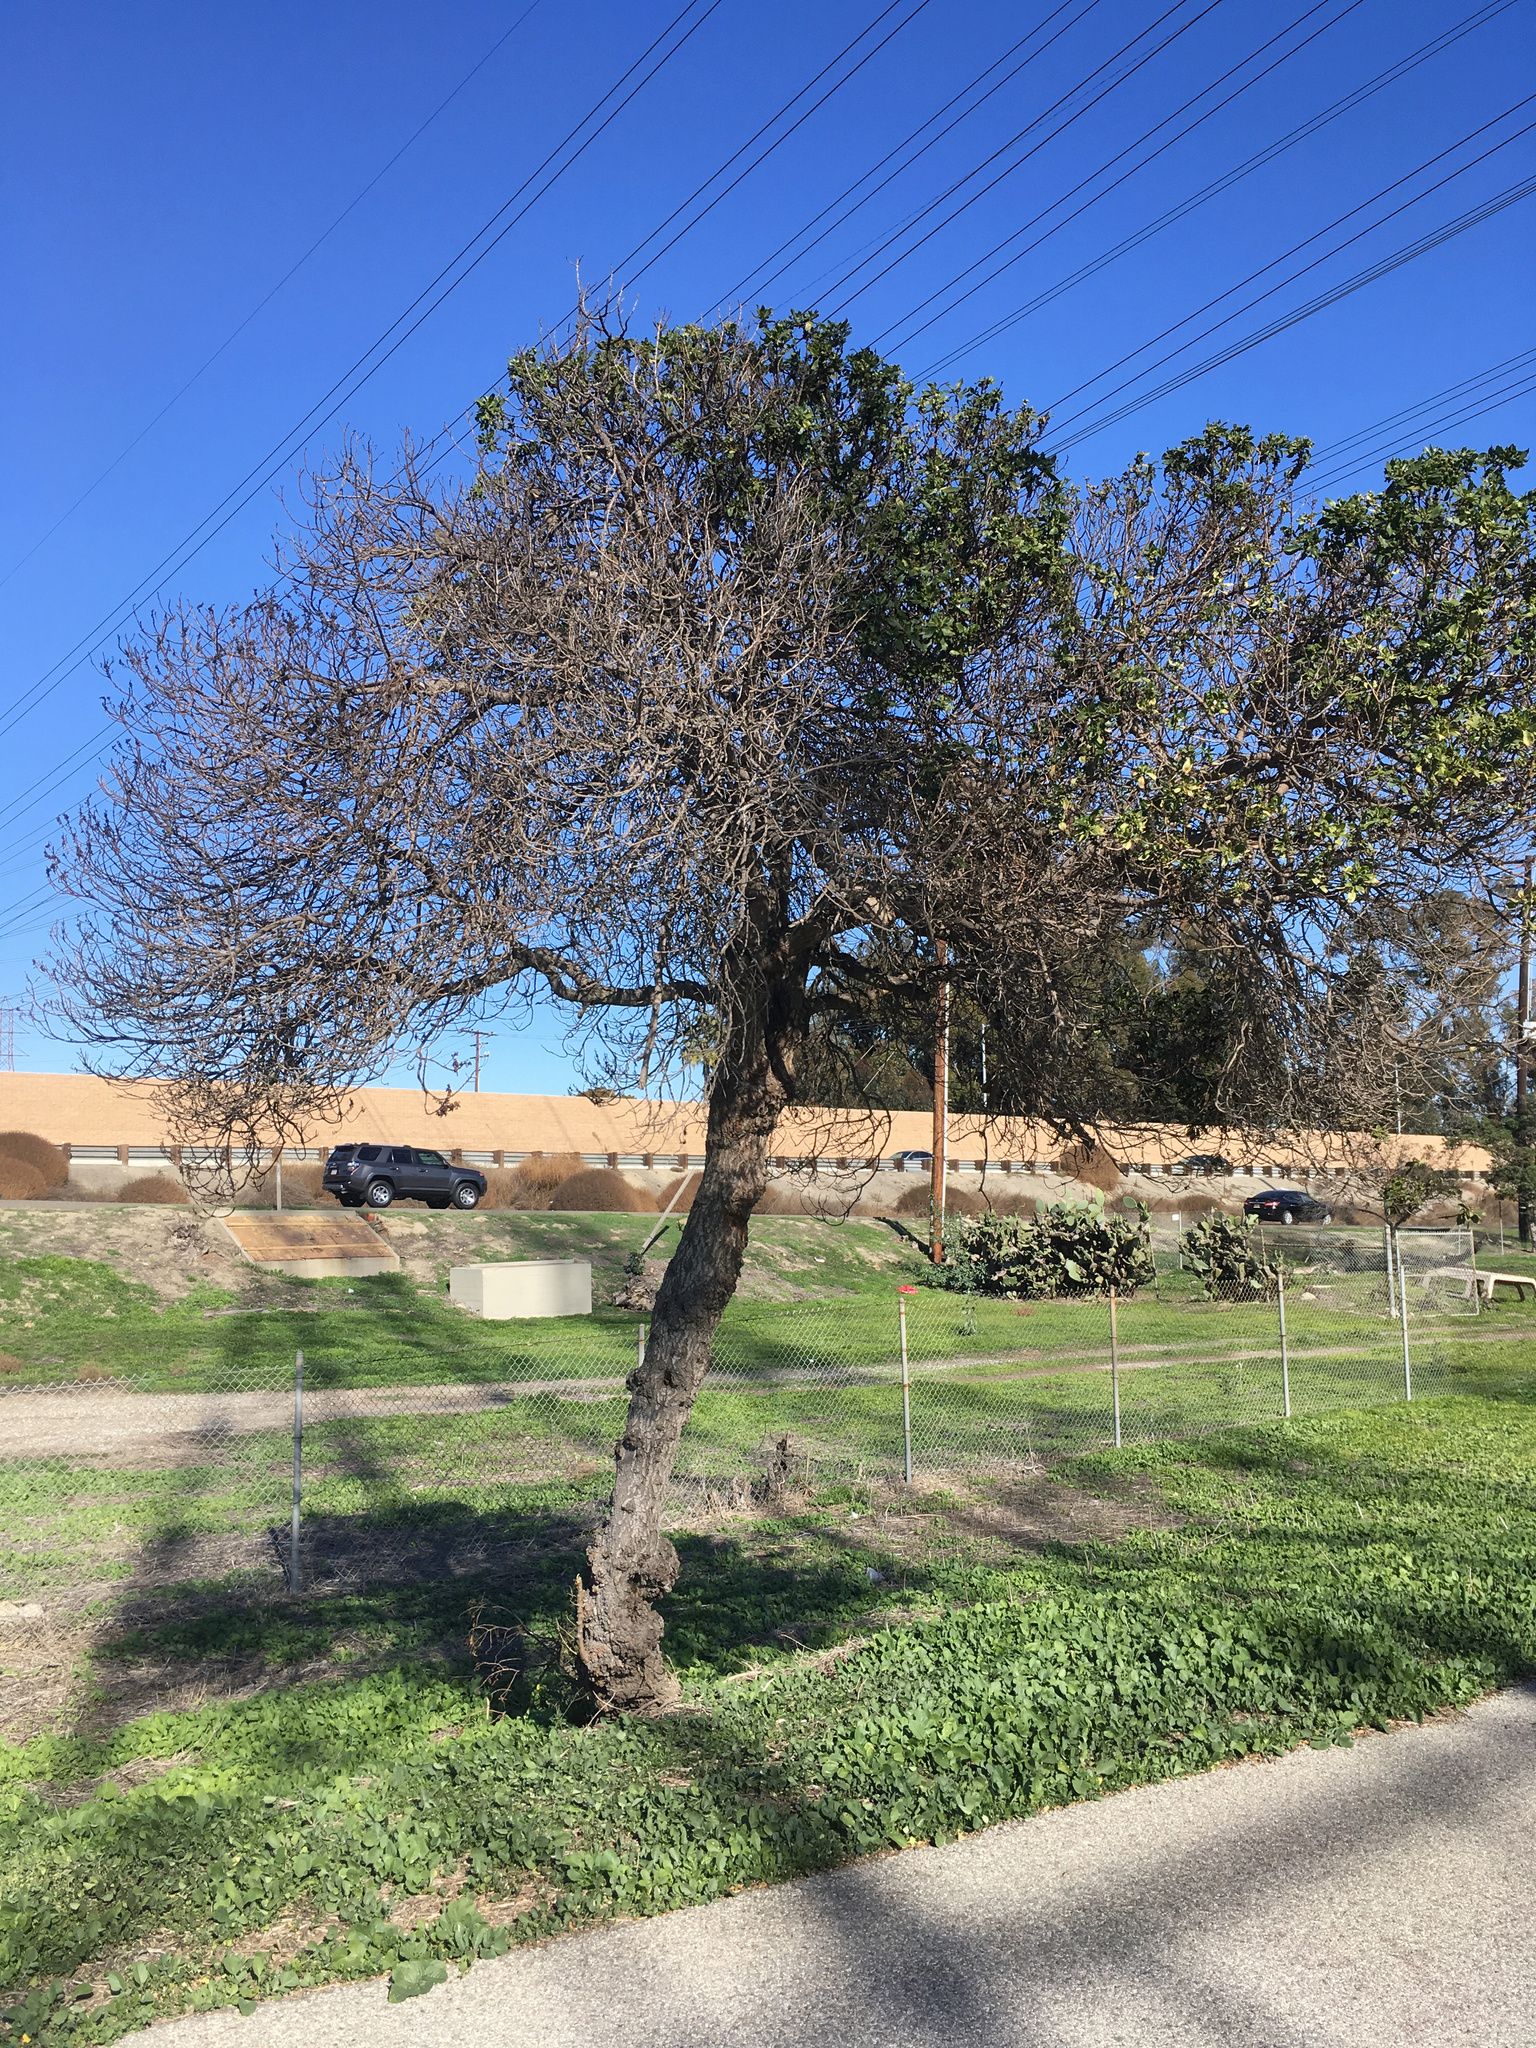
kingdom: Plantae
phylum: Tracheophyta
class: Magnoliopsida
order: Lamiales
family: Scrophulariaceae
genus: Myoporum
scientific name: Myoporum laetum
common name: Ngaio tree
